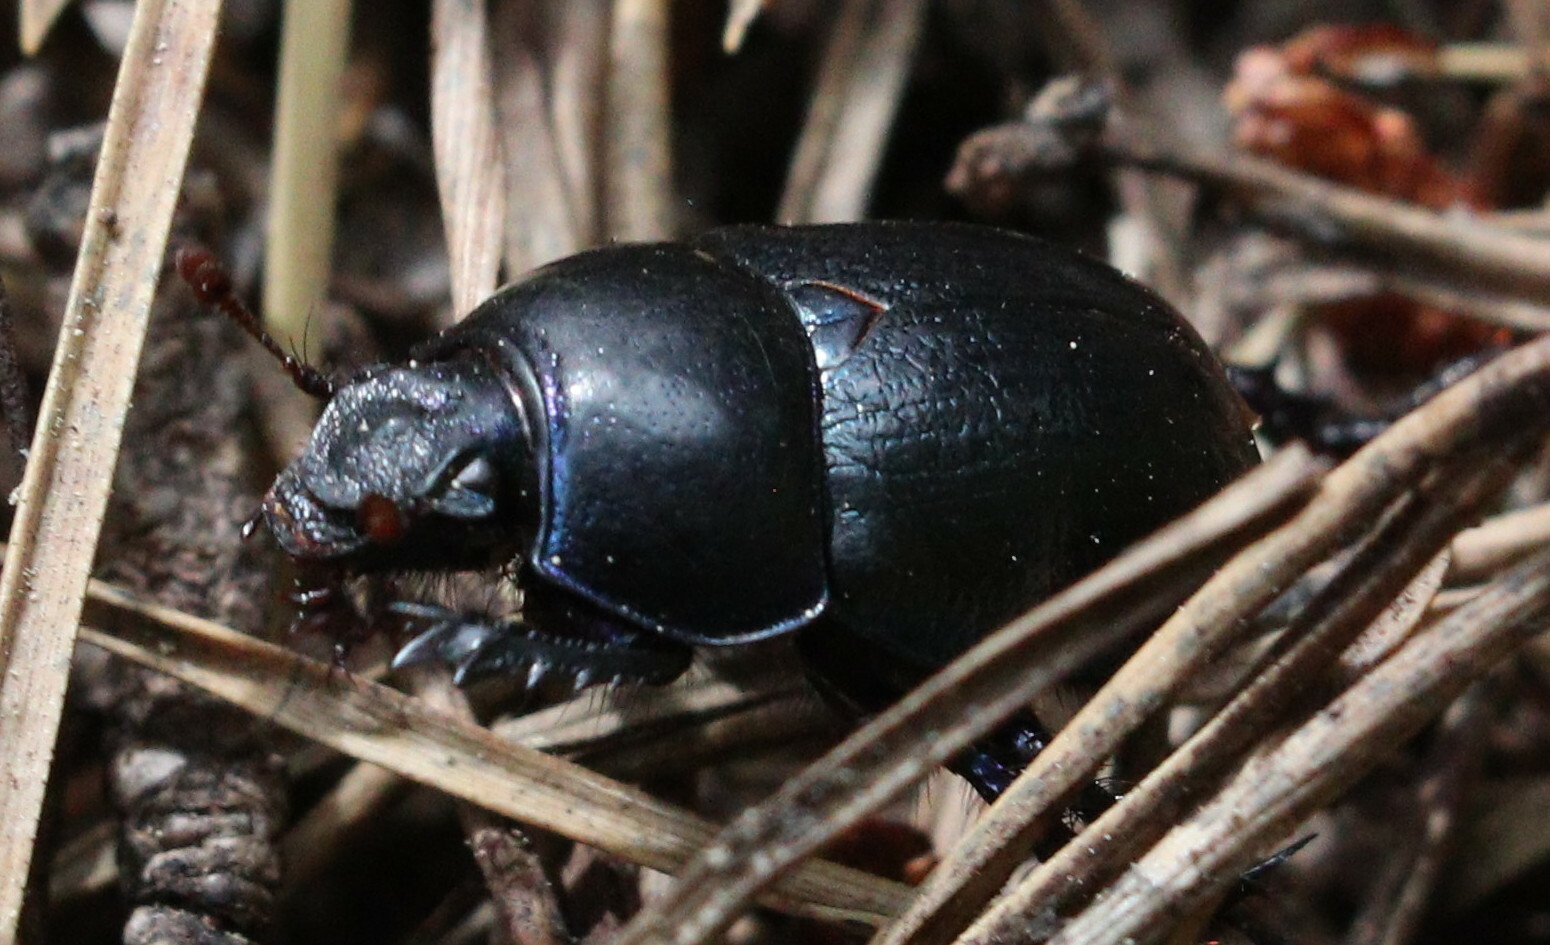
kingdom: Animalia
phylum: Arthropoda
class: Insecta
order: Coleoptera
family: Geotrupidae
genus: Anoplotrupes
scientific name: Anoplotrupes stercorosus
